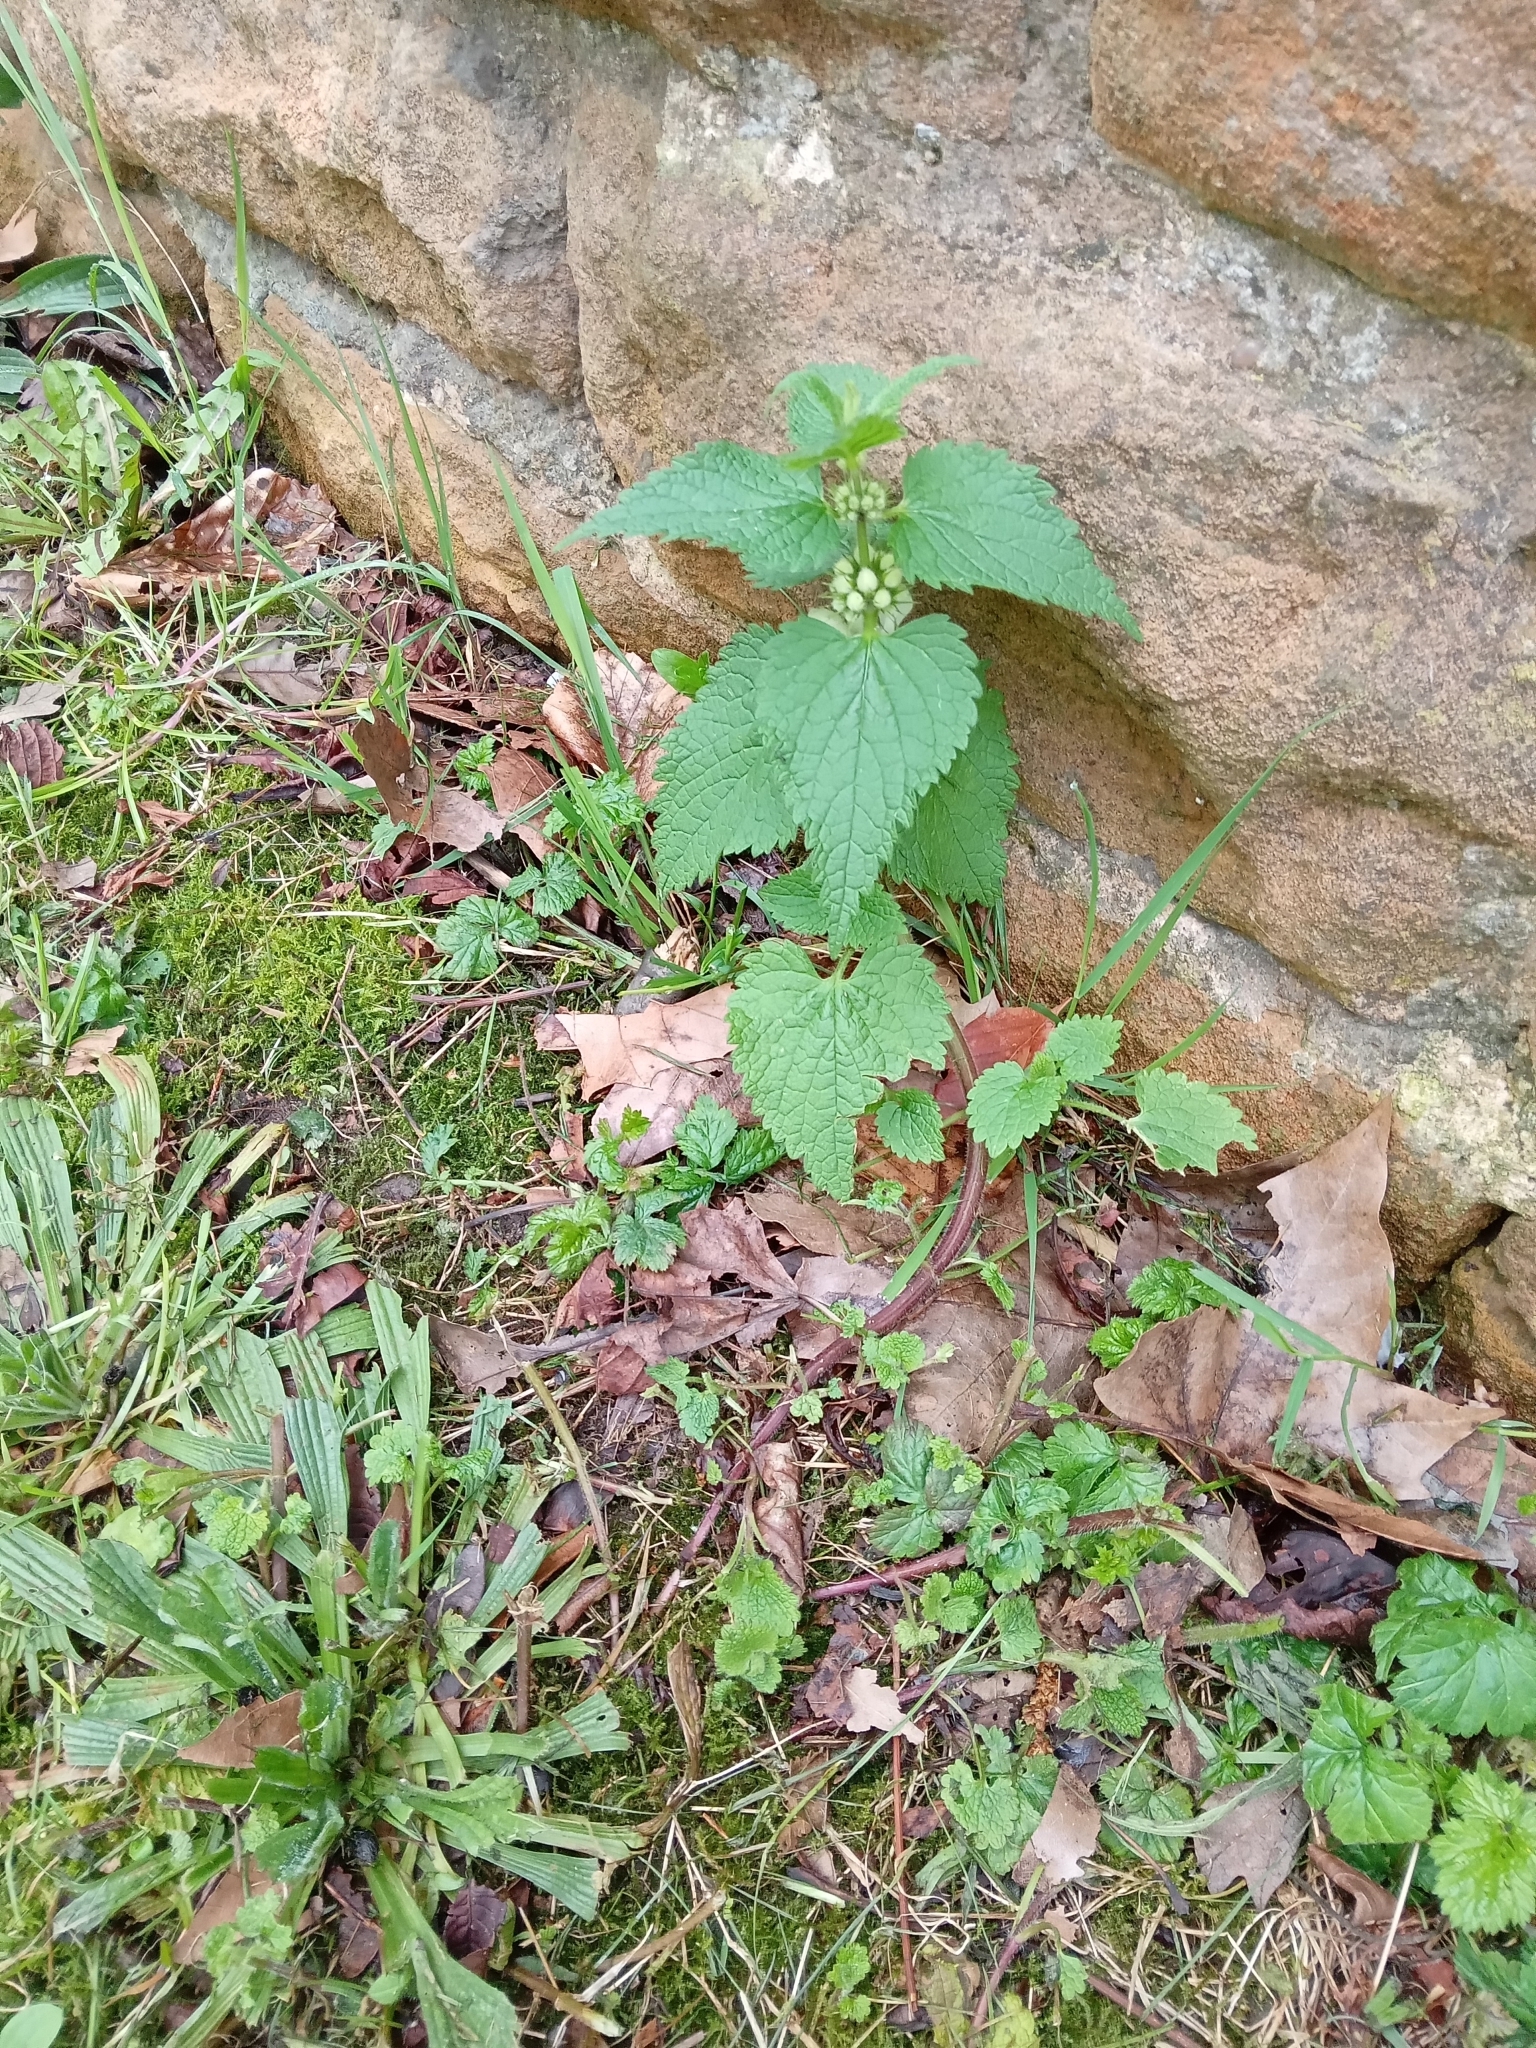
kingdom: Plantae
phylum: Tracheophyta
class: Magnoliopsida
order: Lamiales
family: Lamiaceae
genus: Lamium
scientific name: Lamium album
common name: White dead-nettle
